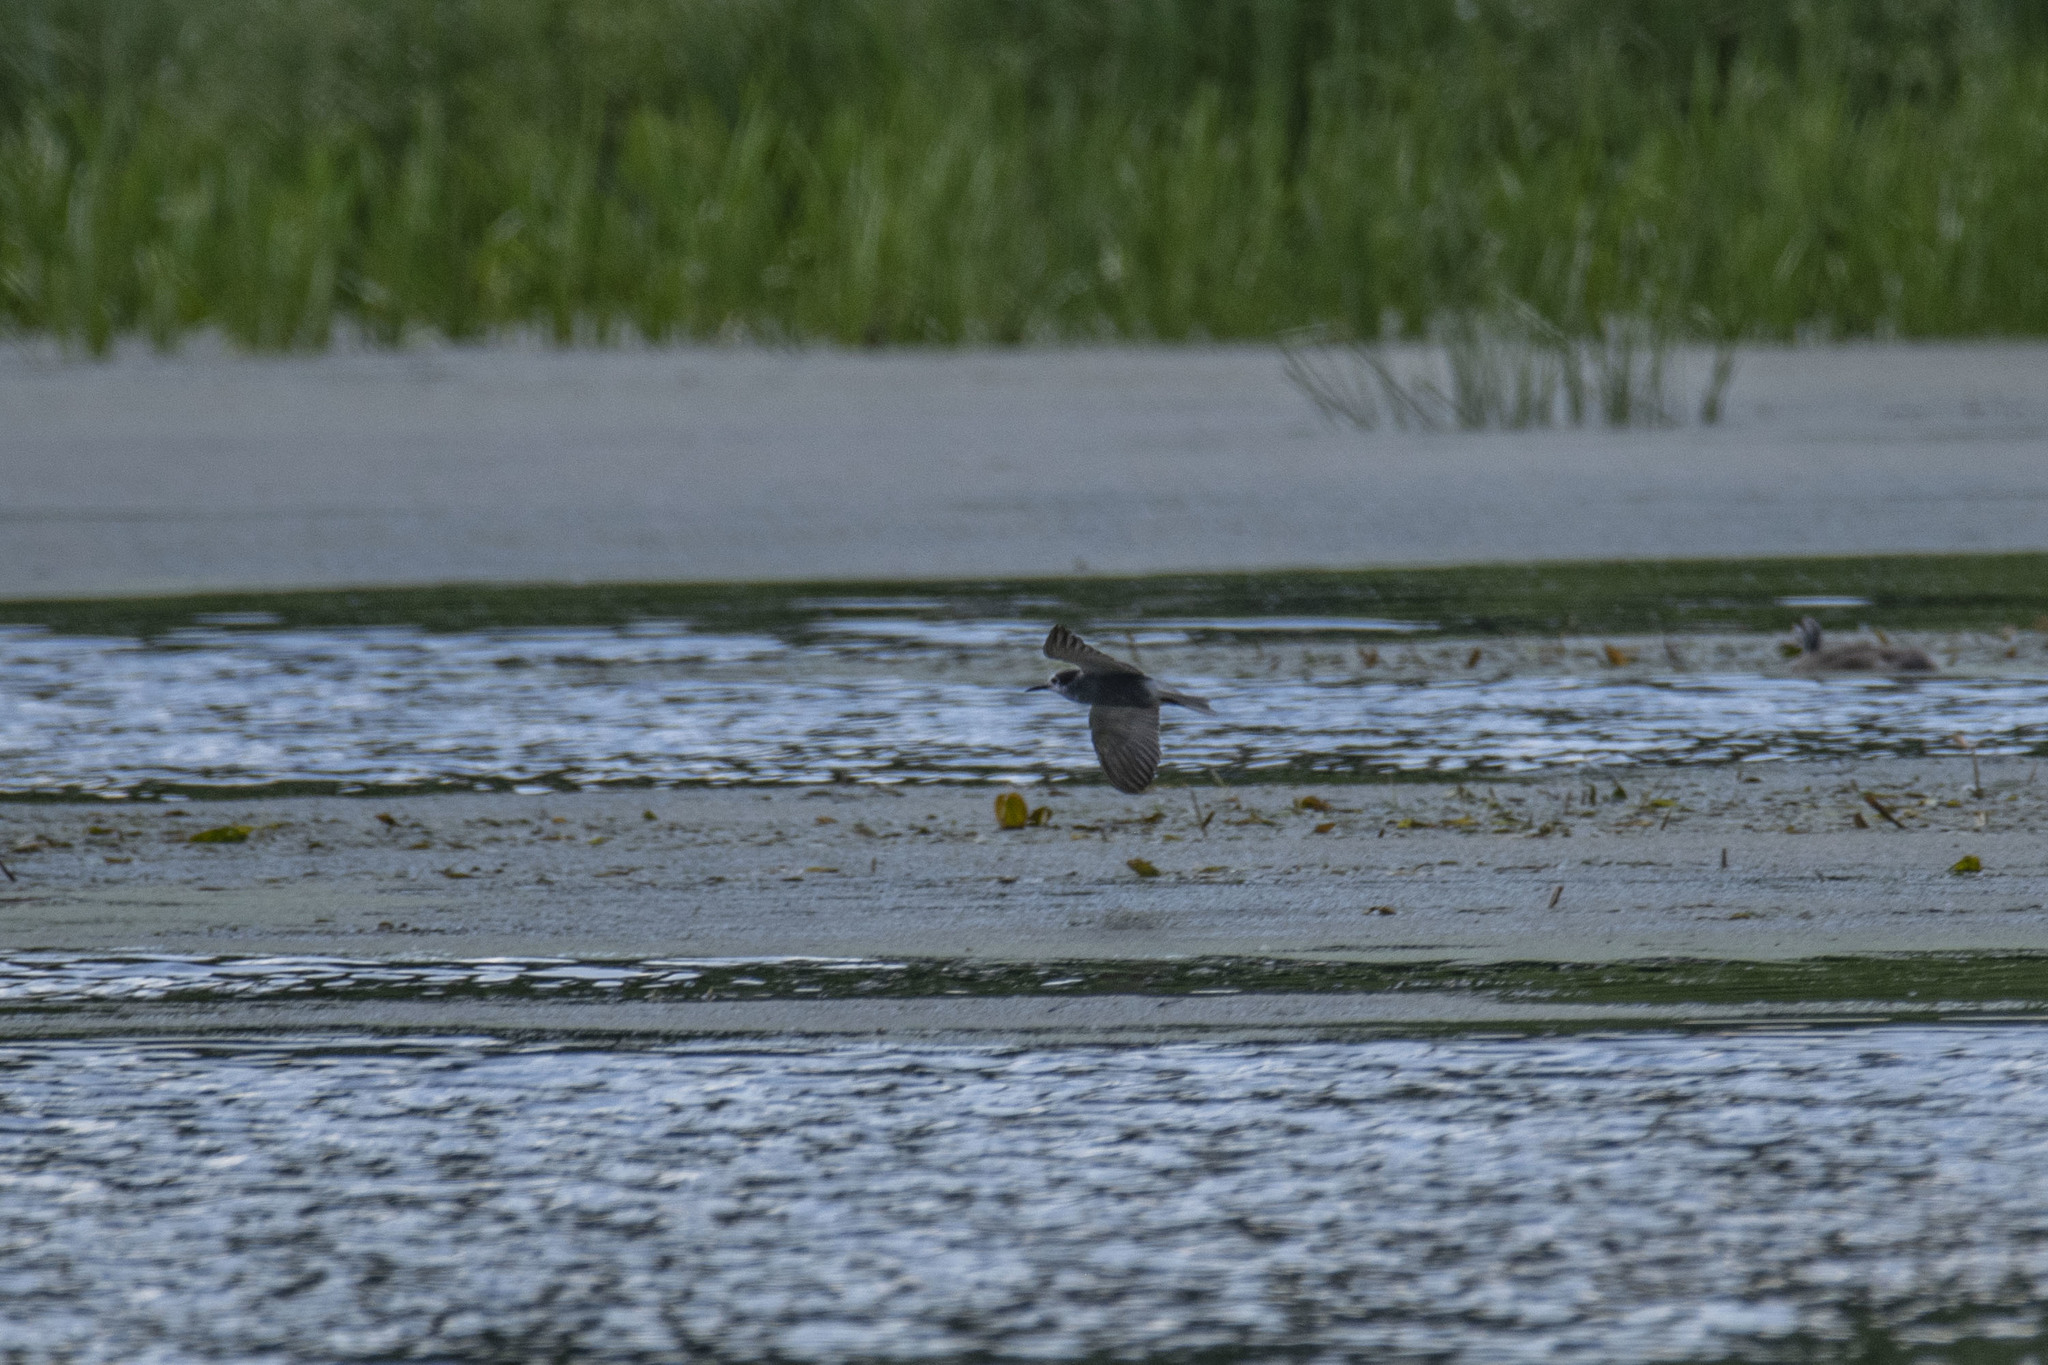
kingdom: Animalia
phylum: Chordata
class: Aves
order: Charadriiformes
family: Laridae
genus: Chlidonias
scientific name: Chlidonias niger
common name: Black tern
